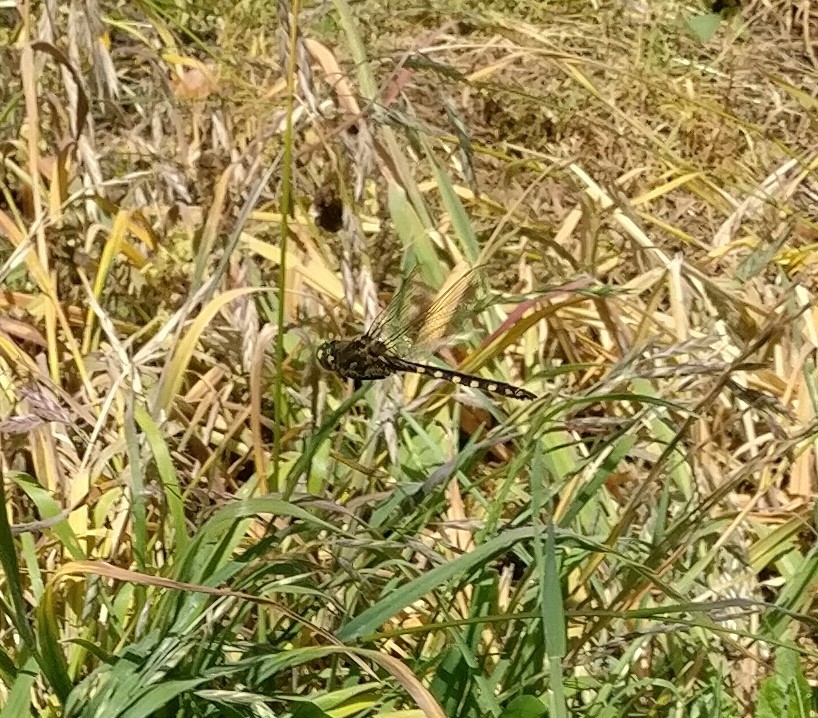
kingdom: Animalia
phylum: Arthropoda
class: Insecta
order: Odonata
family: Corduliidae
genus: Procordulia
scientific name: Procordulia grayi
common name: Yellow spotted dragonfly
